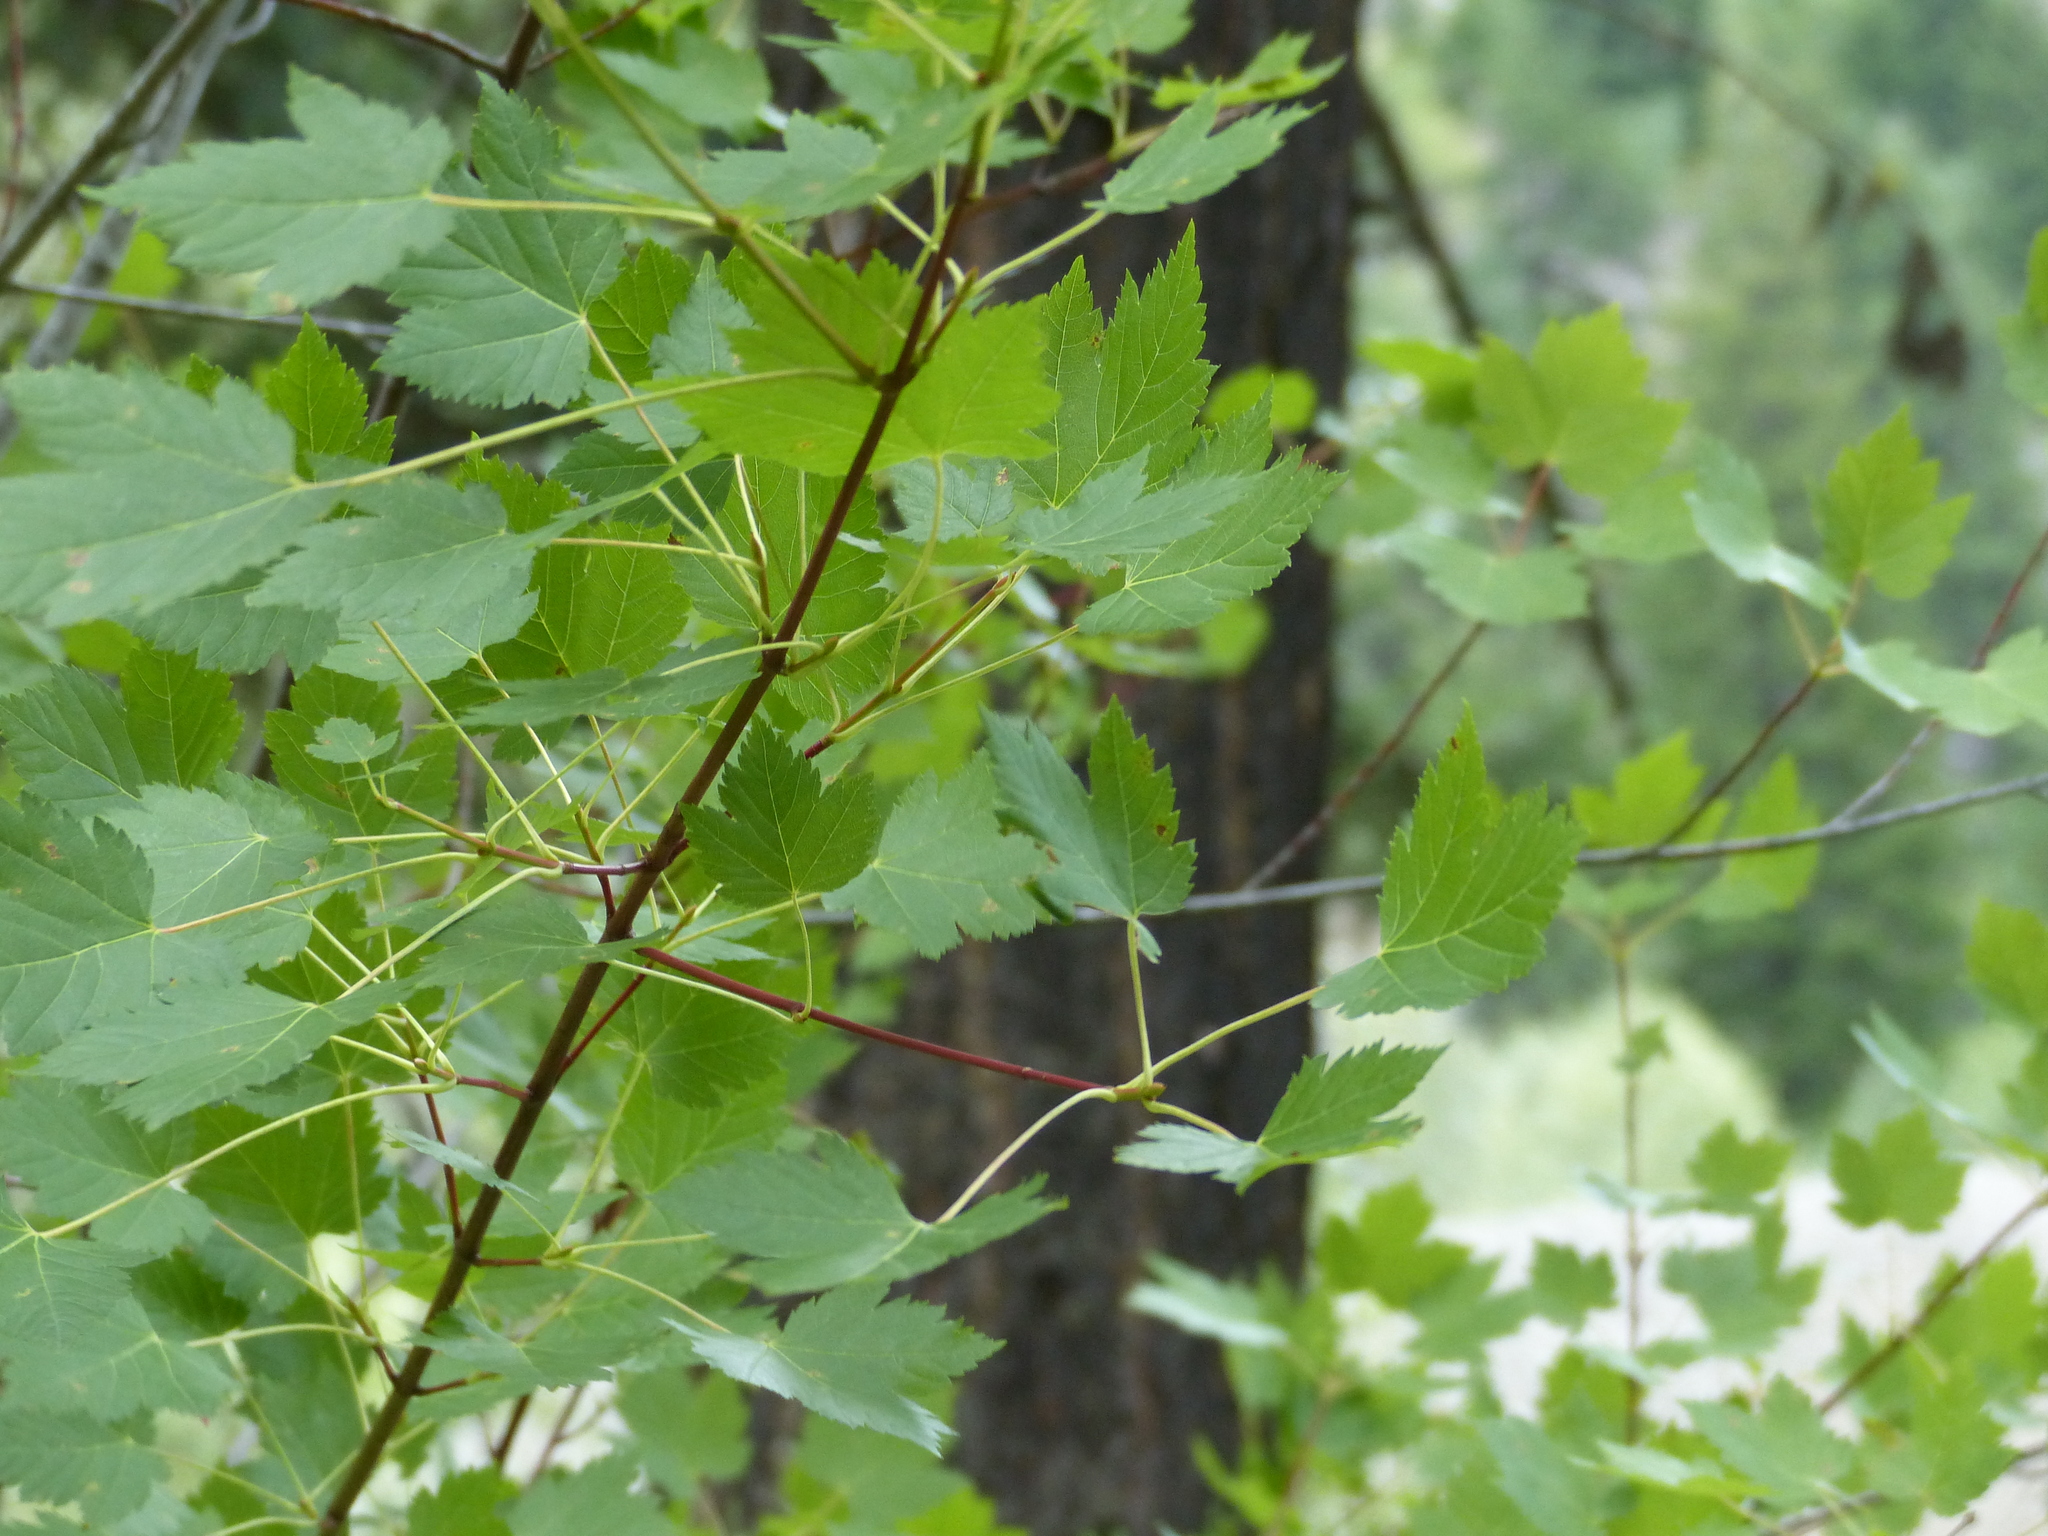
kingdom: Plantae
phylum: Tracheophyta
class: Magnoliopsida
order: Sapindales
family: Sapindaceae
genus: Acer
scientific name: Acer glabrum
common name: Rocky mountain maple
